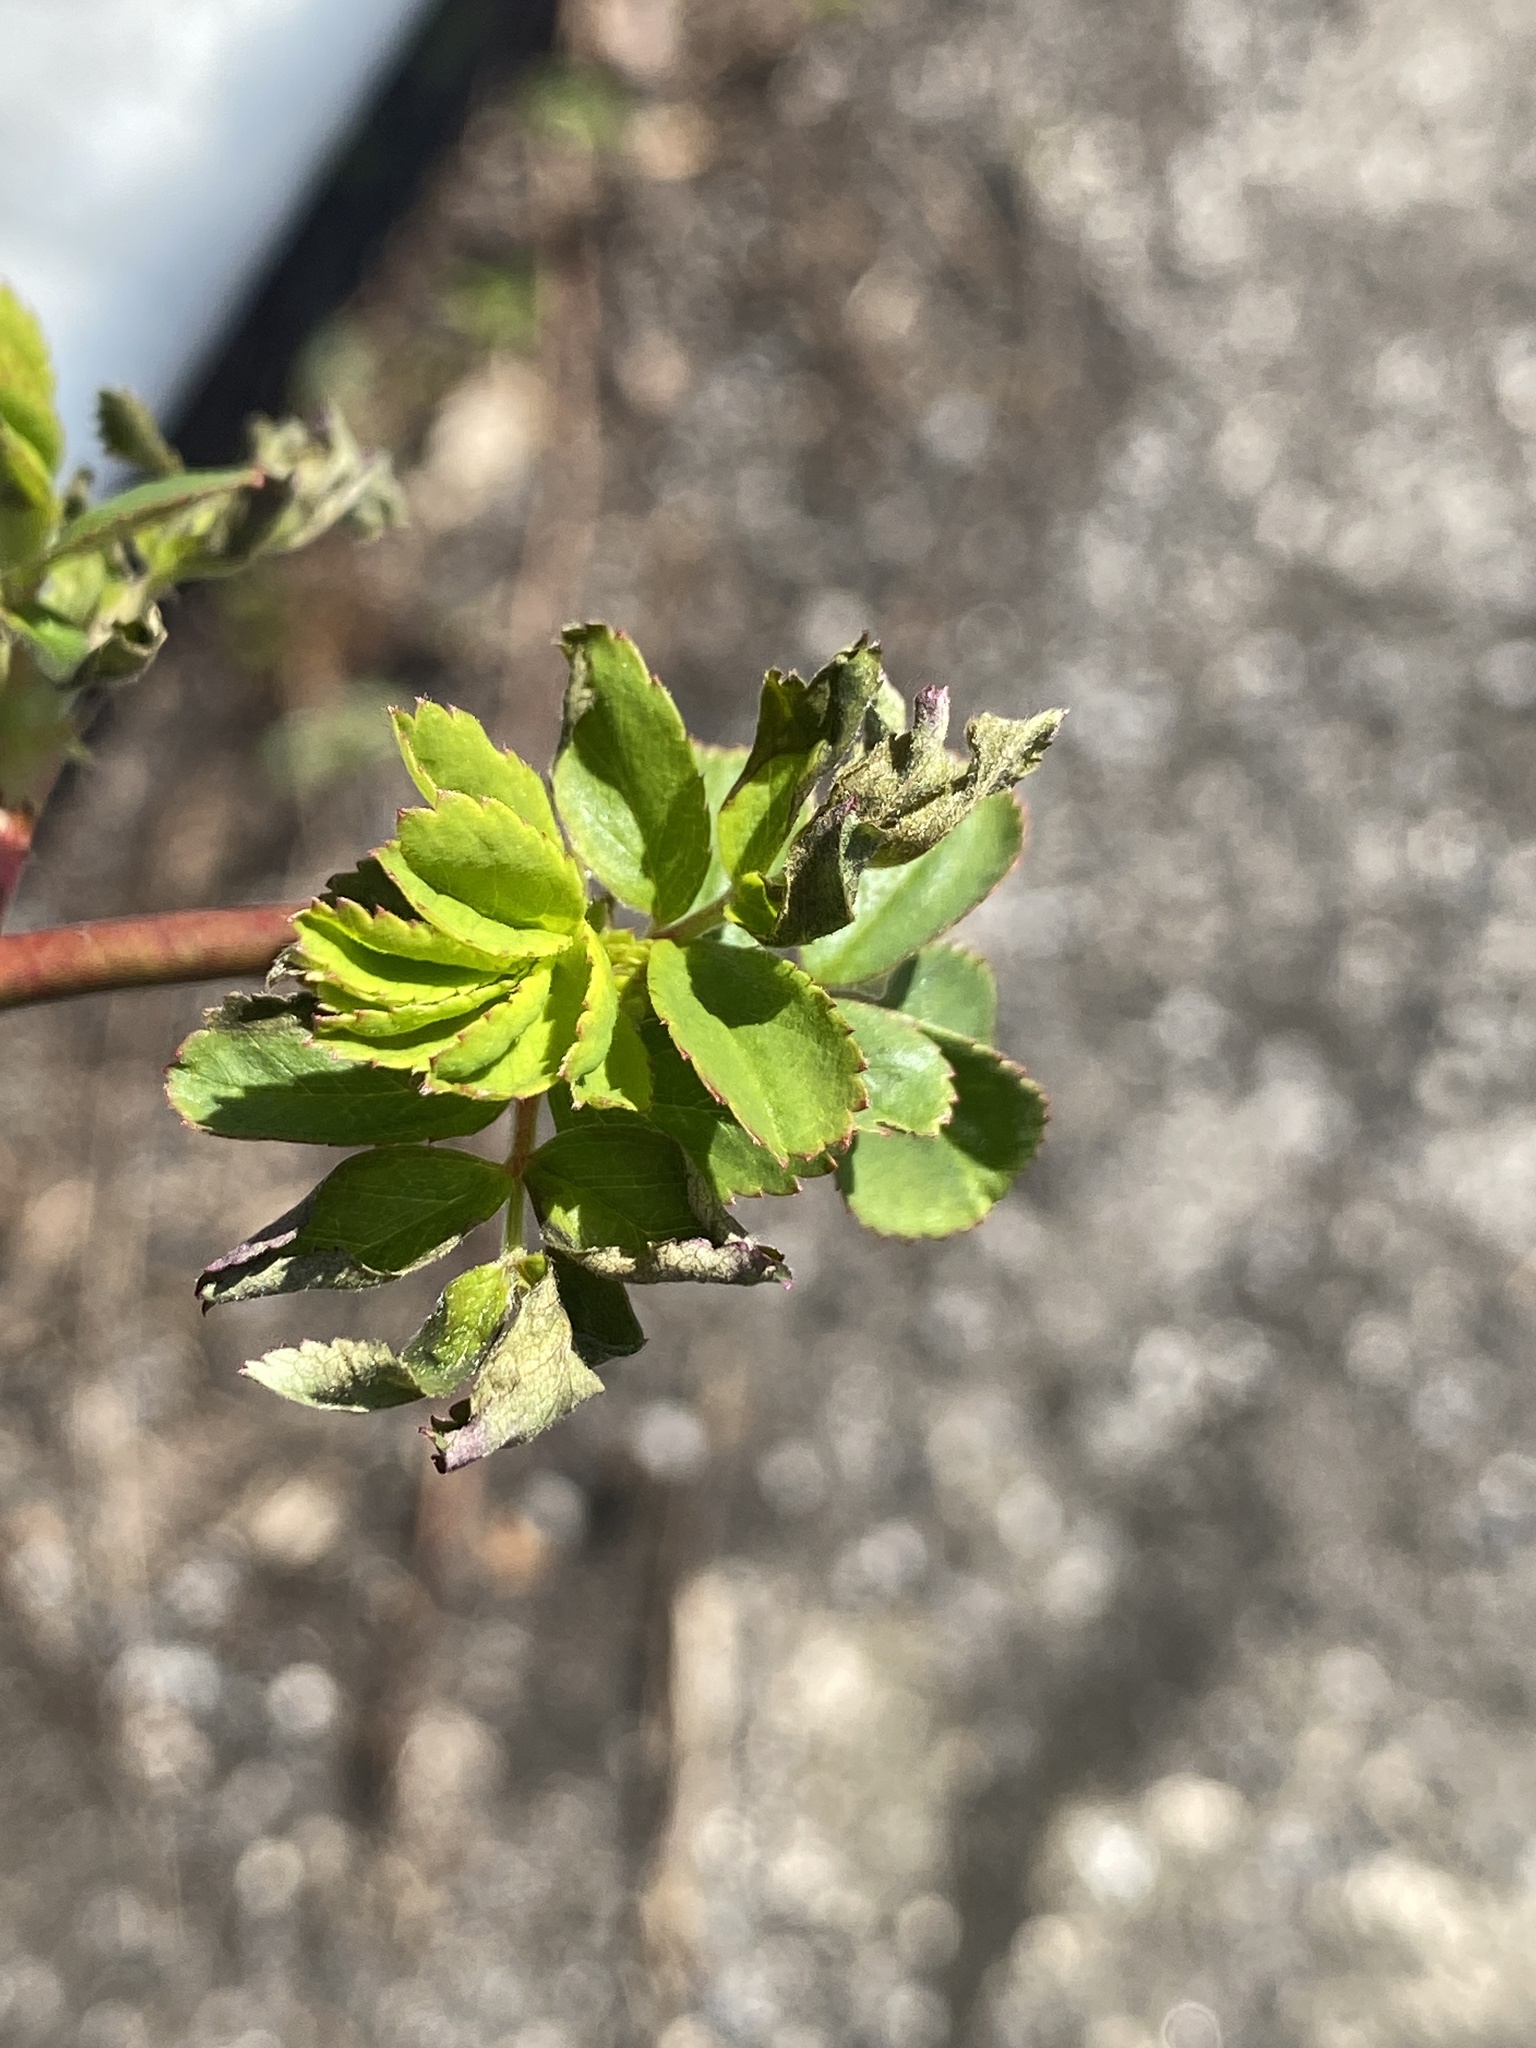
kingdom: Viruses
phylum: Negarnaviricota
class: Ellioviricetes
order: Bunyavirales
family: Fimoviridae
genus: Emaravirus
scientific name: Emaravirus rosae
